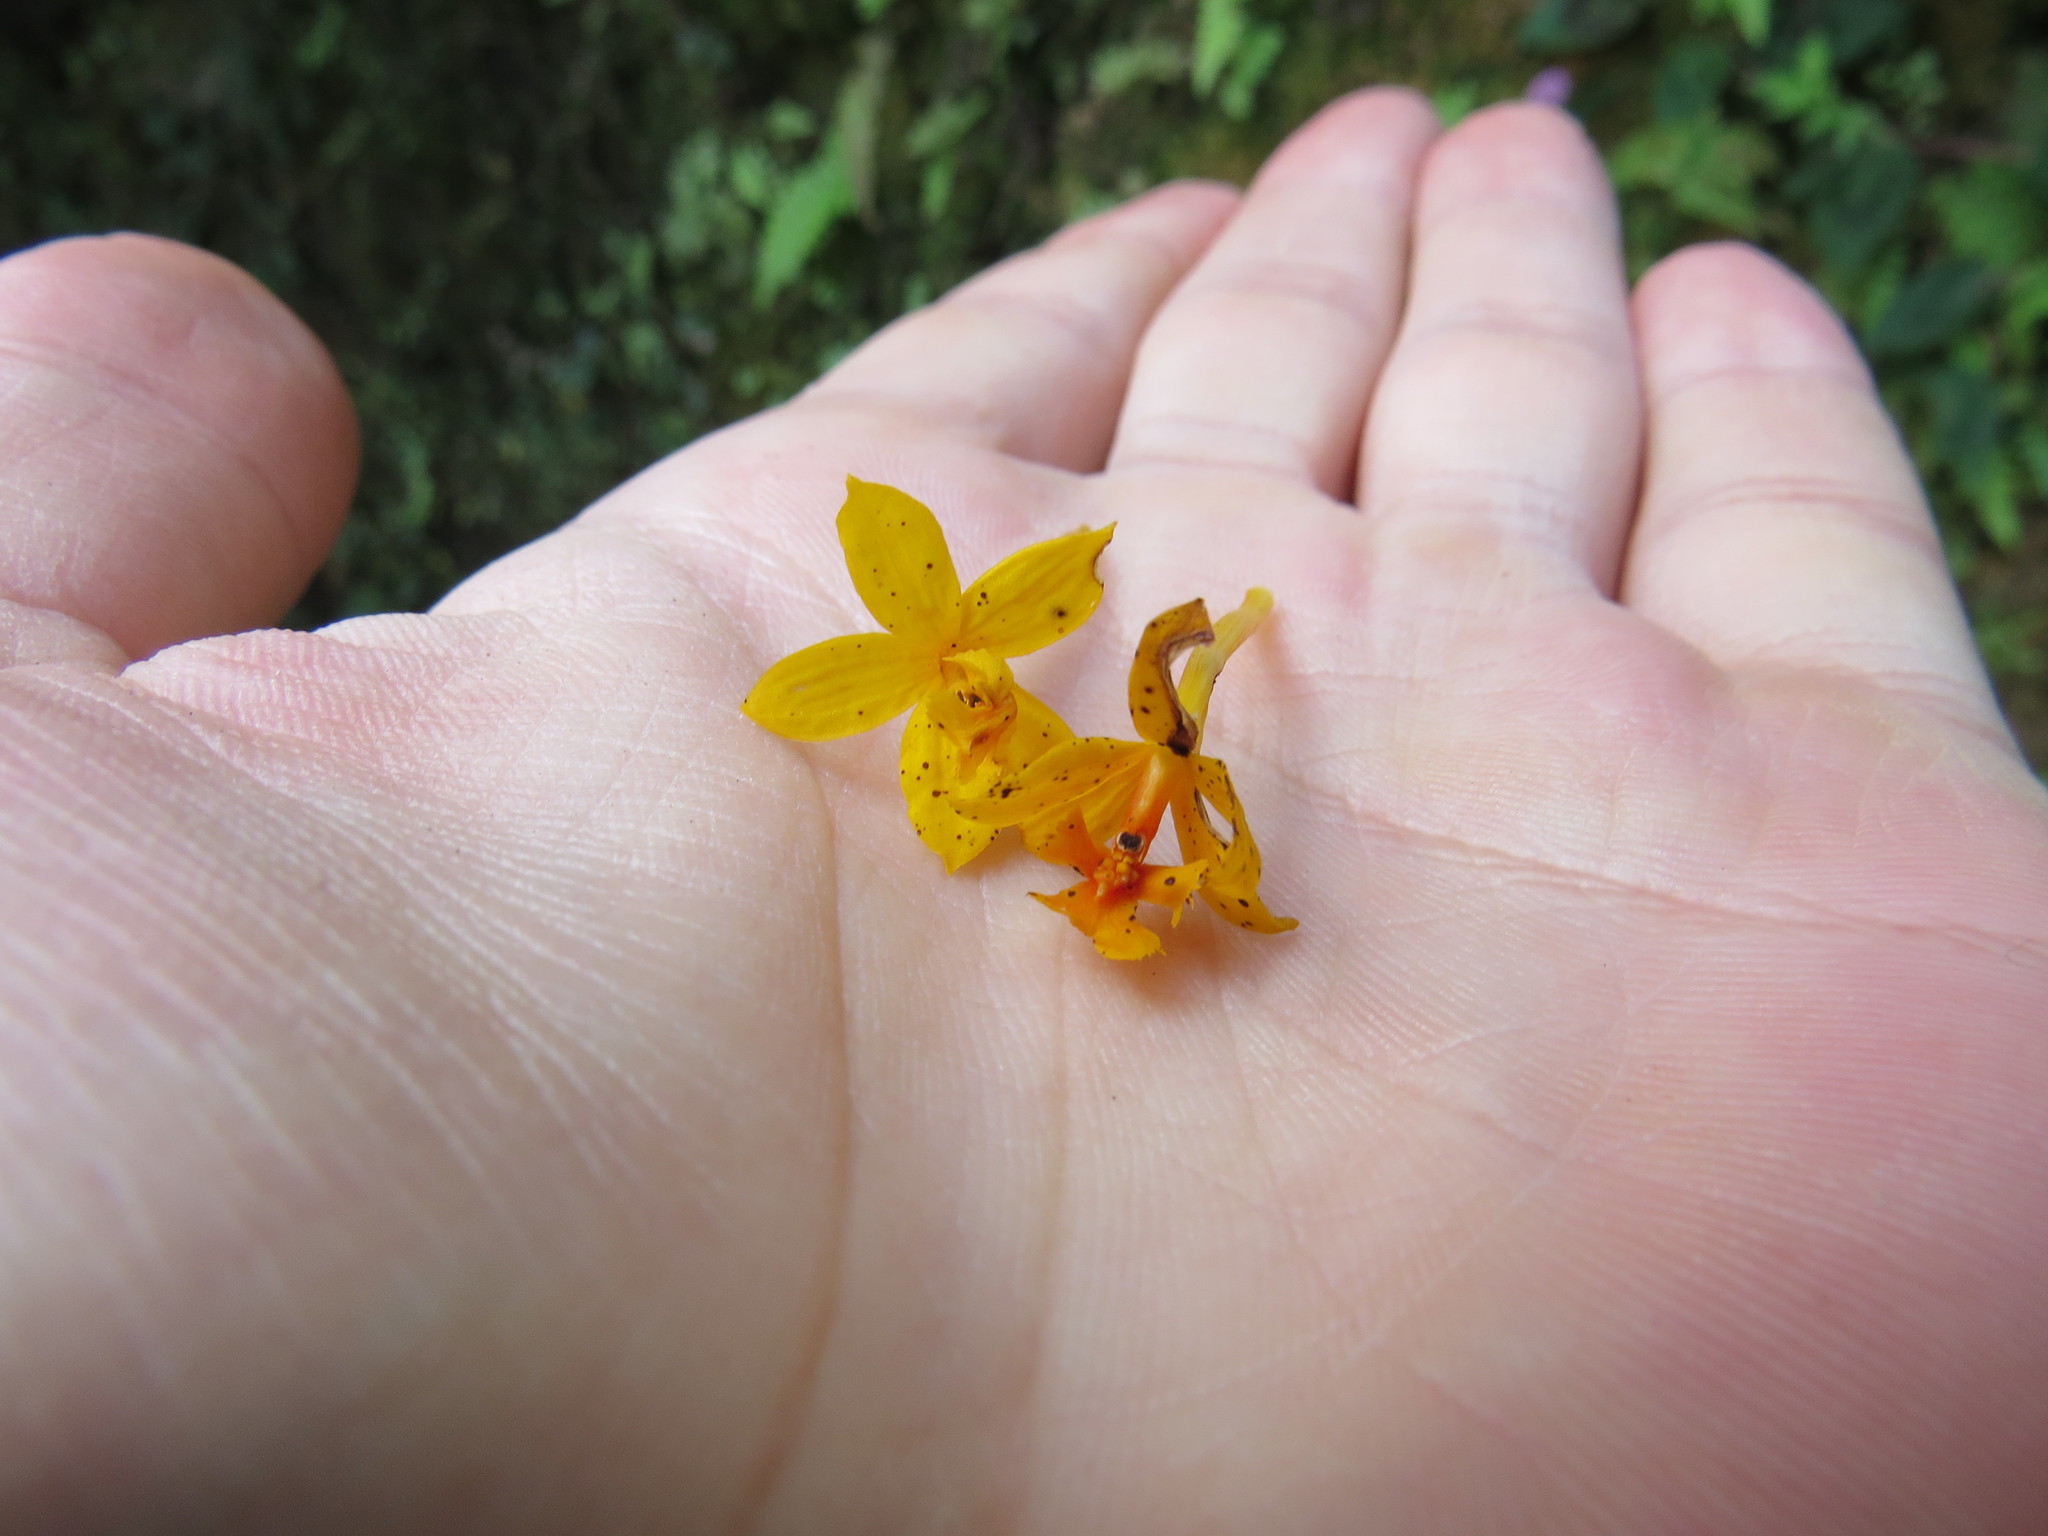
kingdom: Plantae
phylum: Tracheophyta
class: Liliopsida
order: Asparagales
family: Orchidaceae
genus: Epidendrum
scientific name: Epidendrum xanthinum
